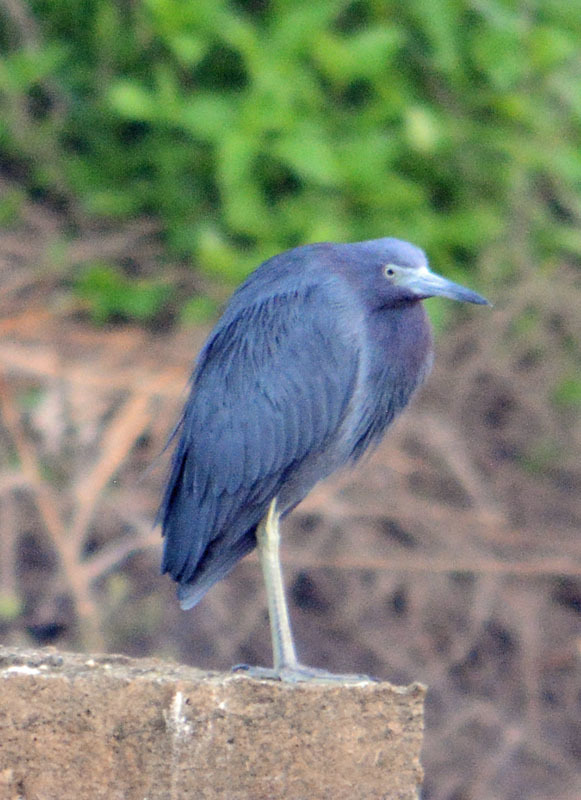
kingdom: Animalia
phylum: Chordata
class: Aves
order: Pelecaniformes
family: Ardeidae
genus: Egretta
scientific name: Egretta caerulea
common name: Little blue heron
